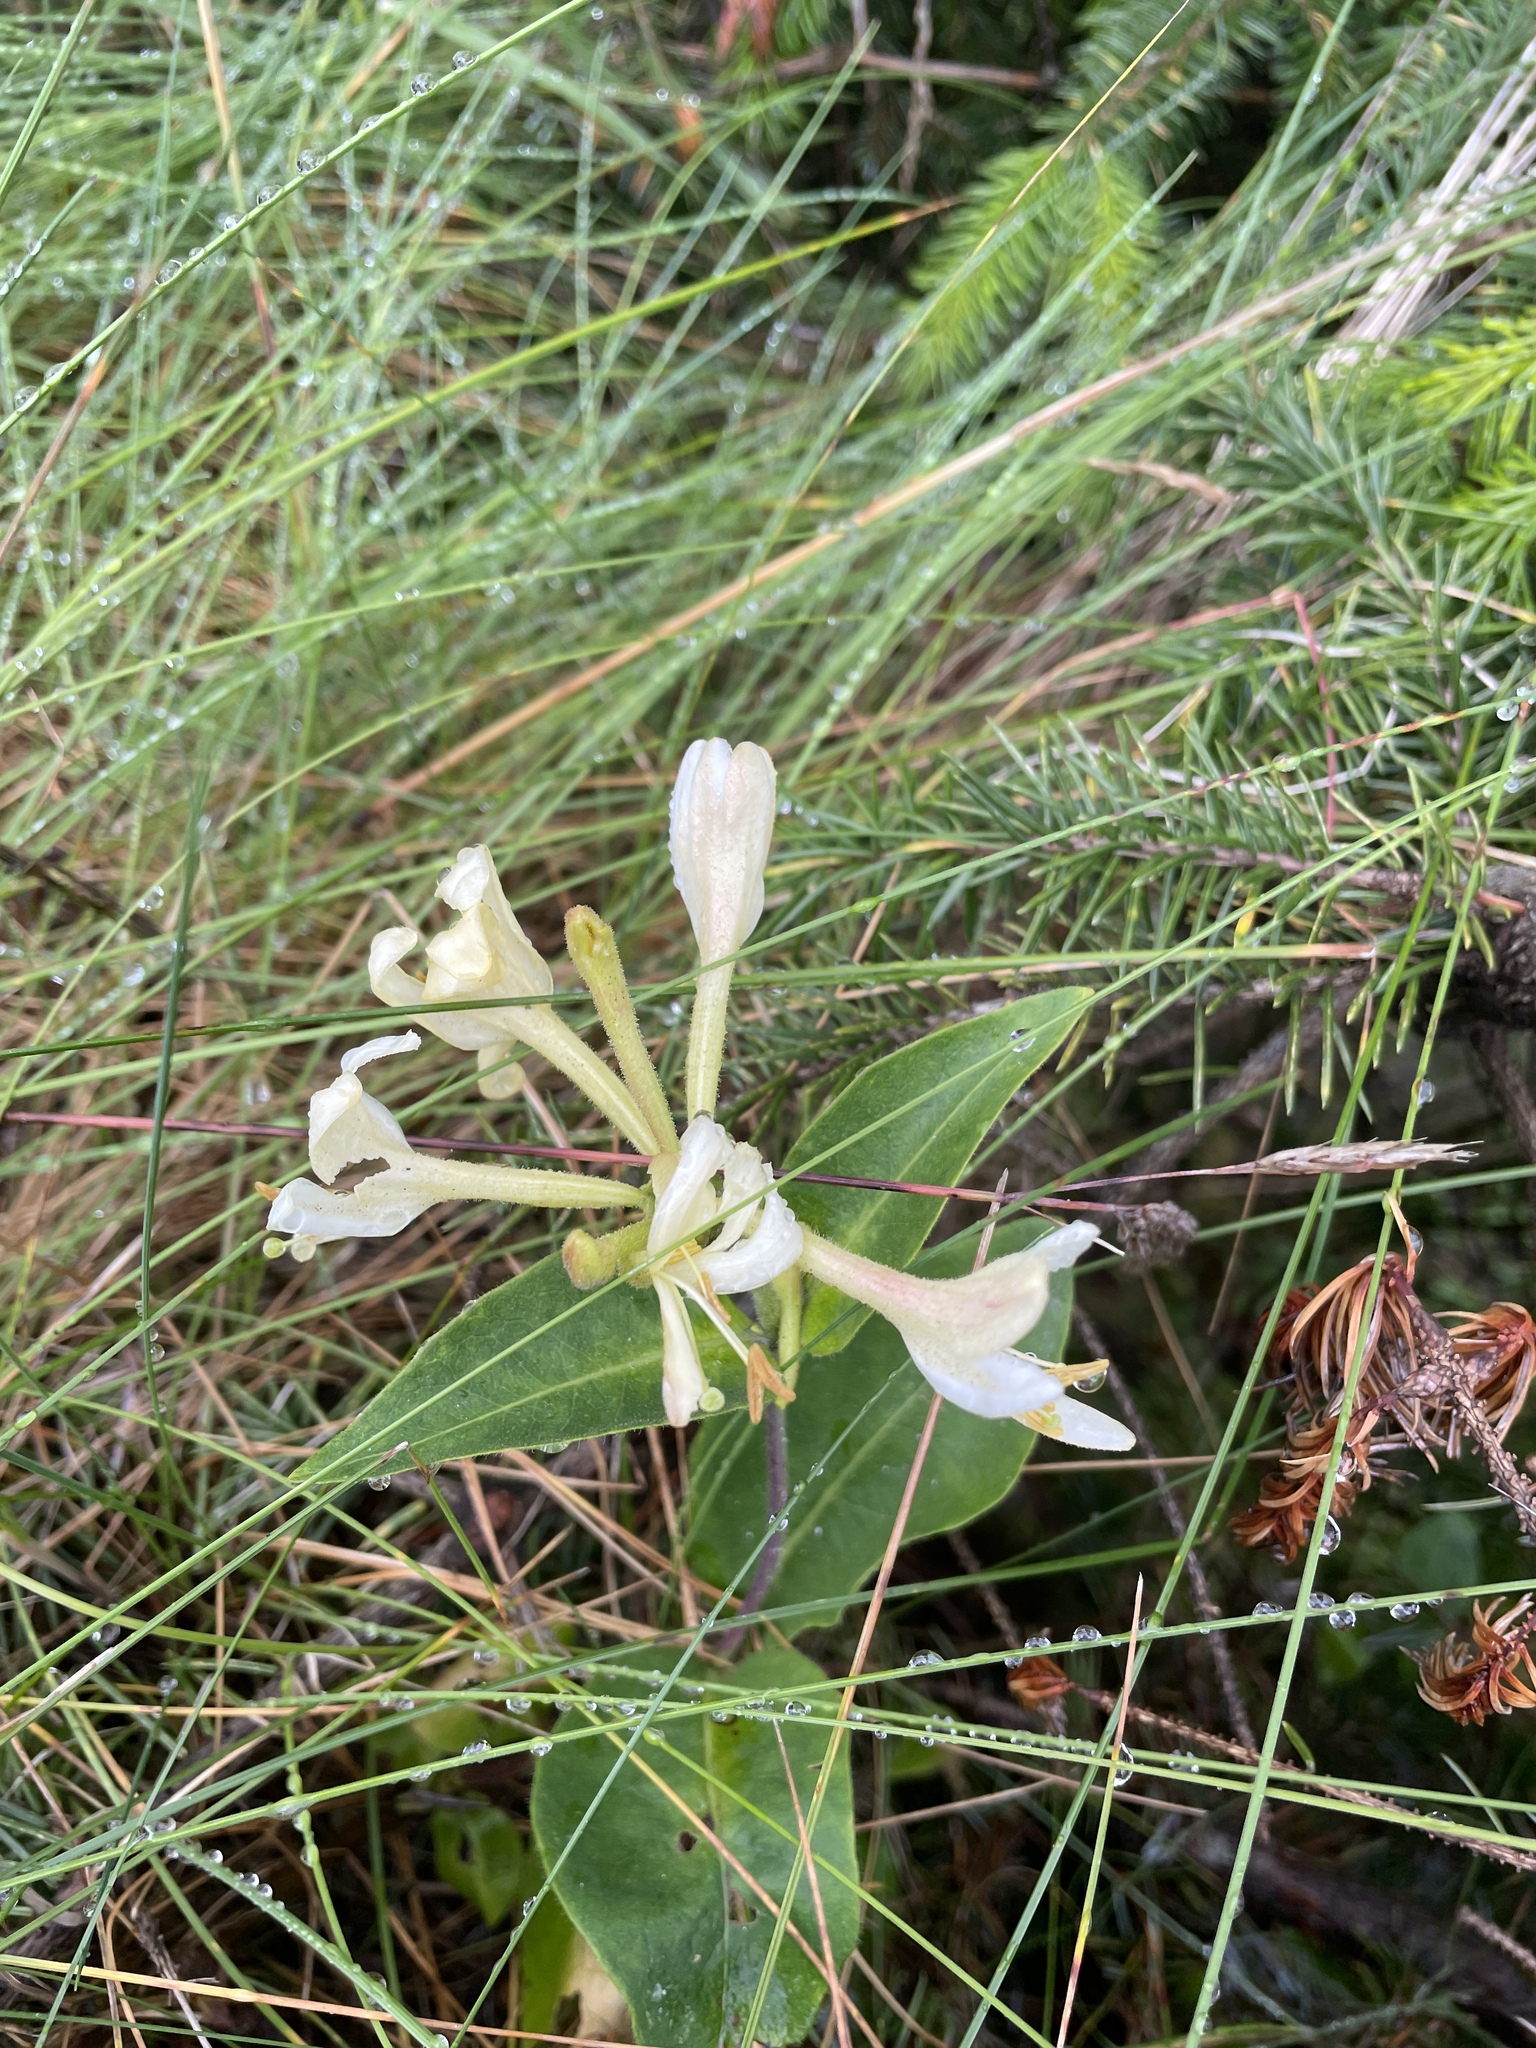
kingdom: Plantae
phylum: Tracheophyta
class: Magnoliopsida
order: Dipsacales
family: Caprifoliaceae
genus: Lonicera
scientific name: Lonicera periclymenum
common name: European honeysuckle
